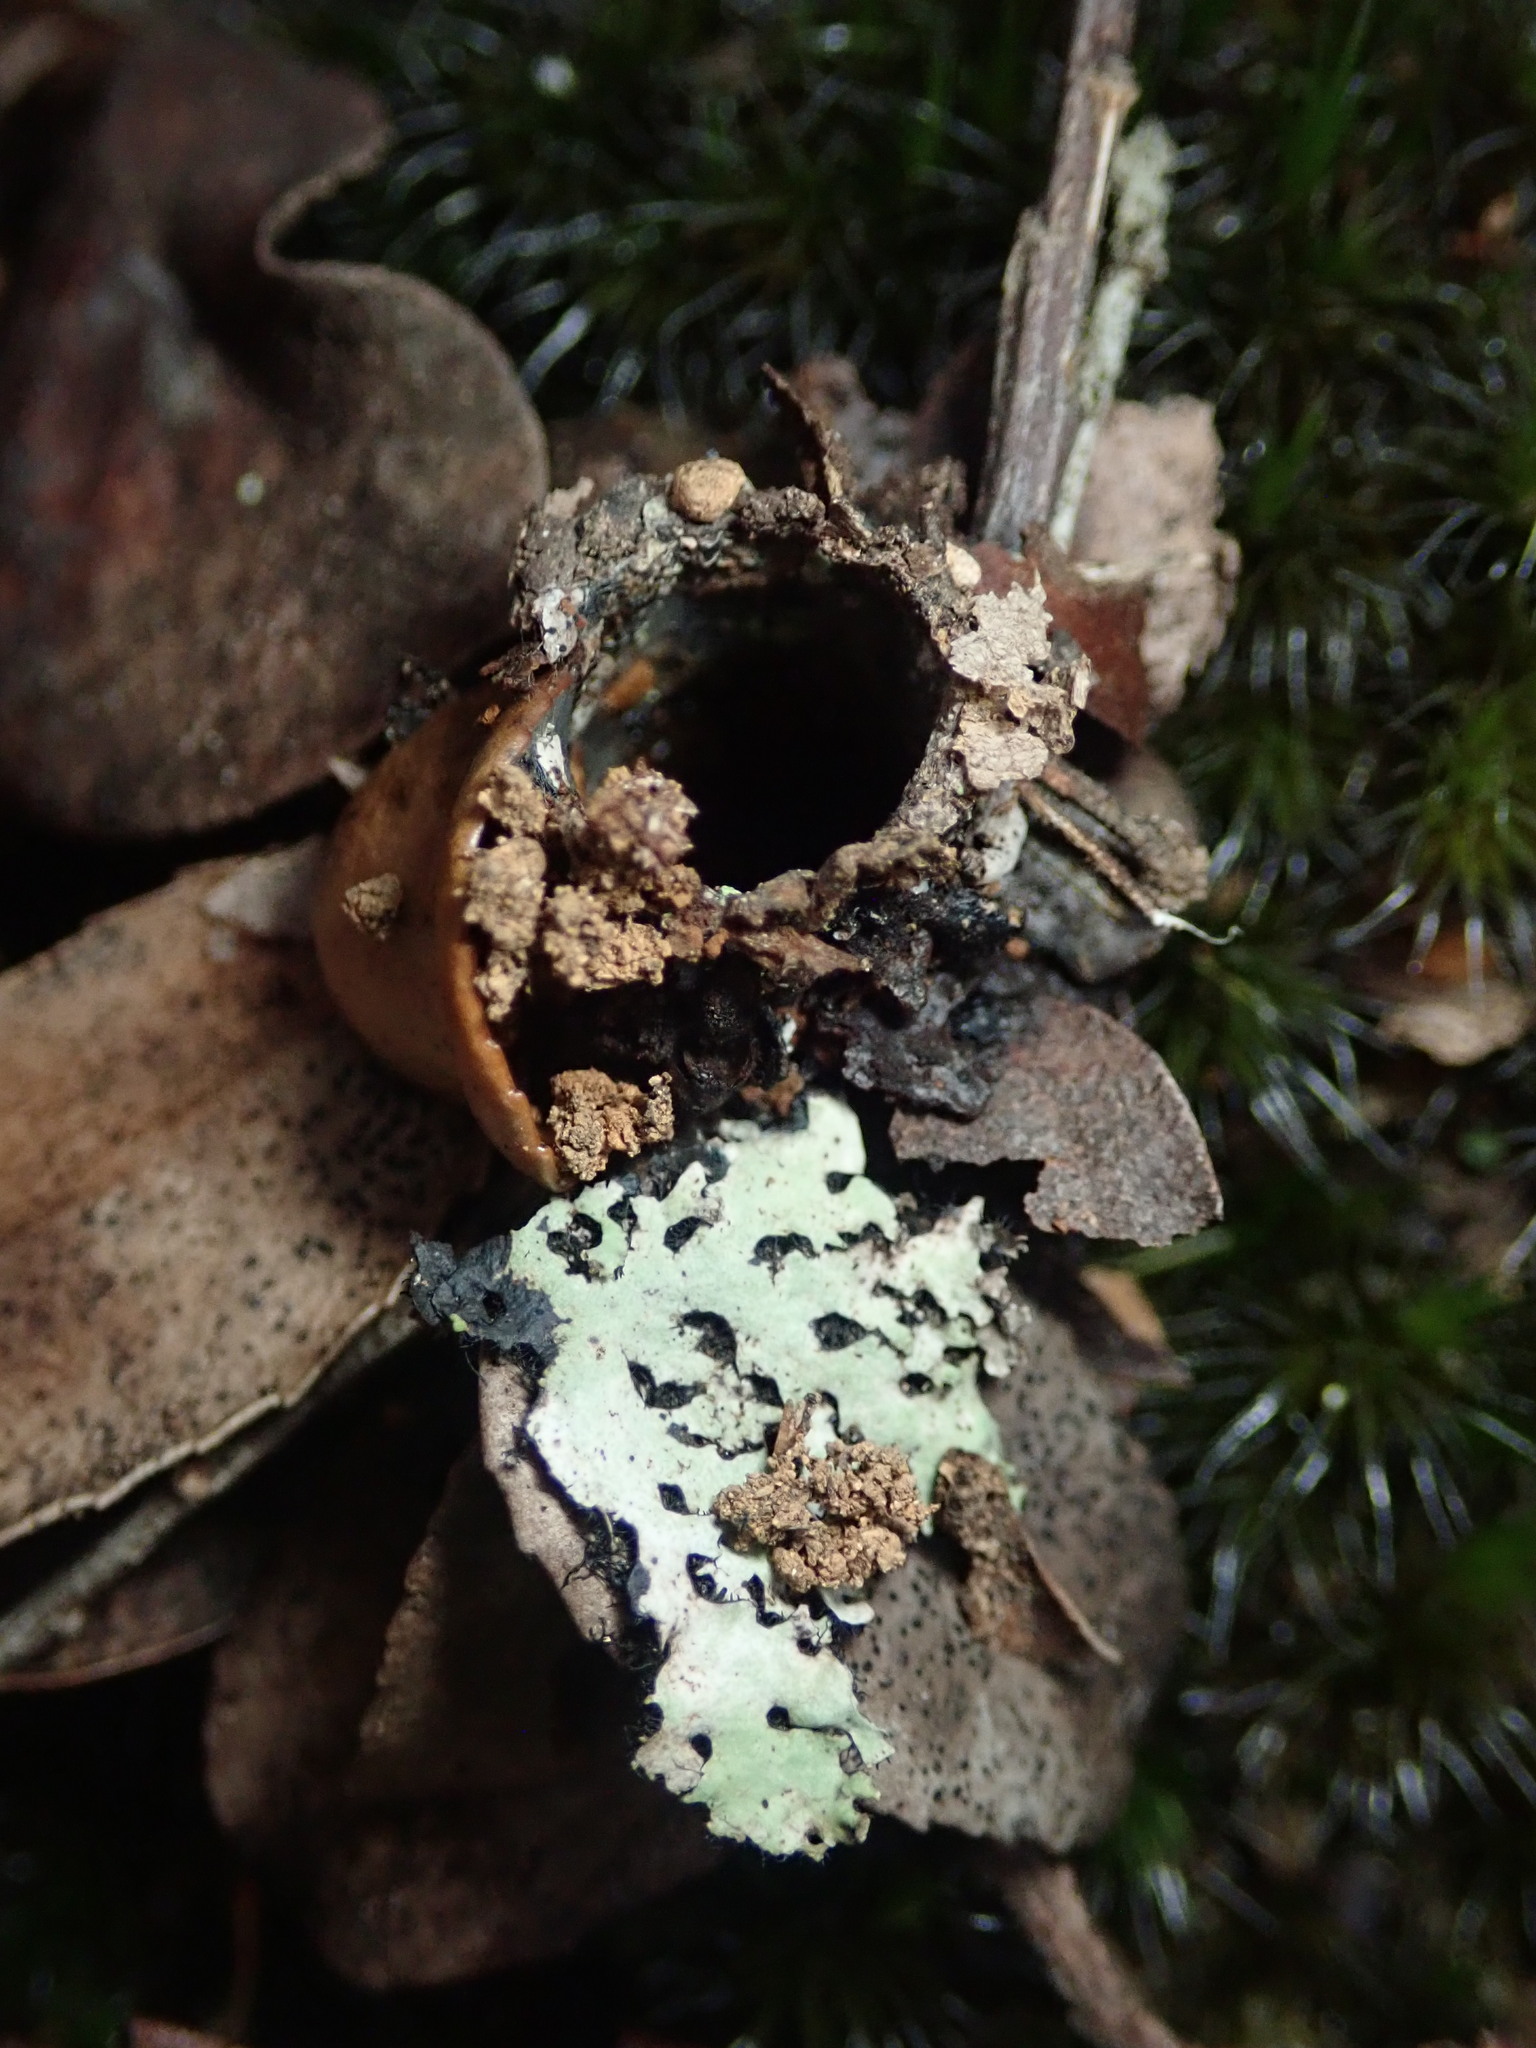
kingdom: Animalia
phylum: Arthropoda
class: Arachnida
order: Araneae
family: Antrodiaetidae
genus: Atypoides
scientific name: Atypoides riversi
